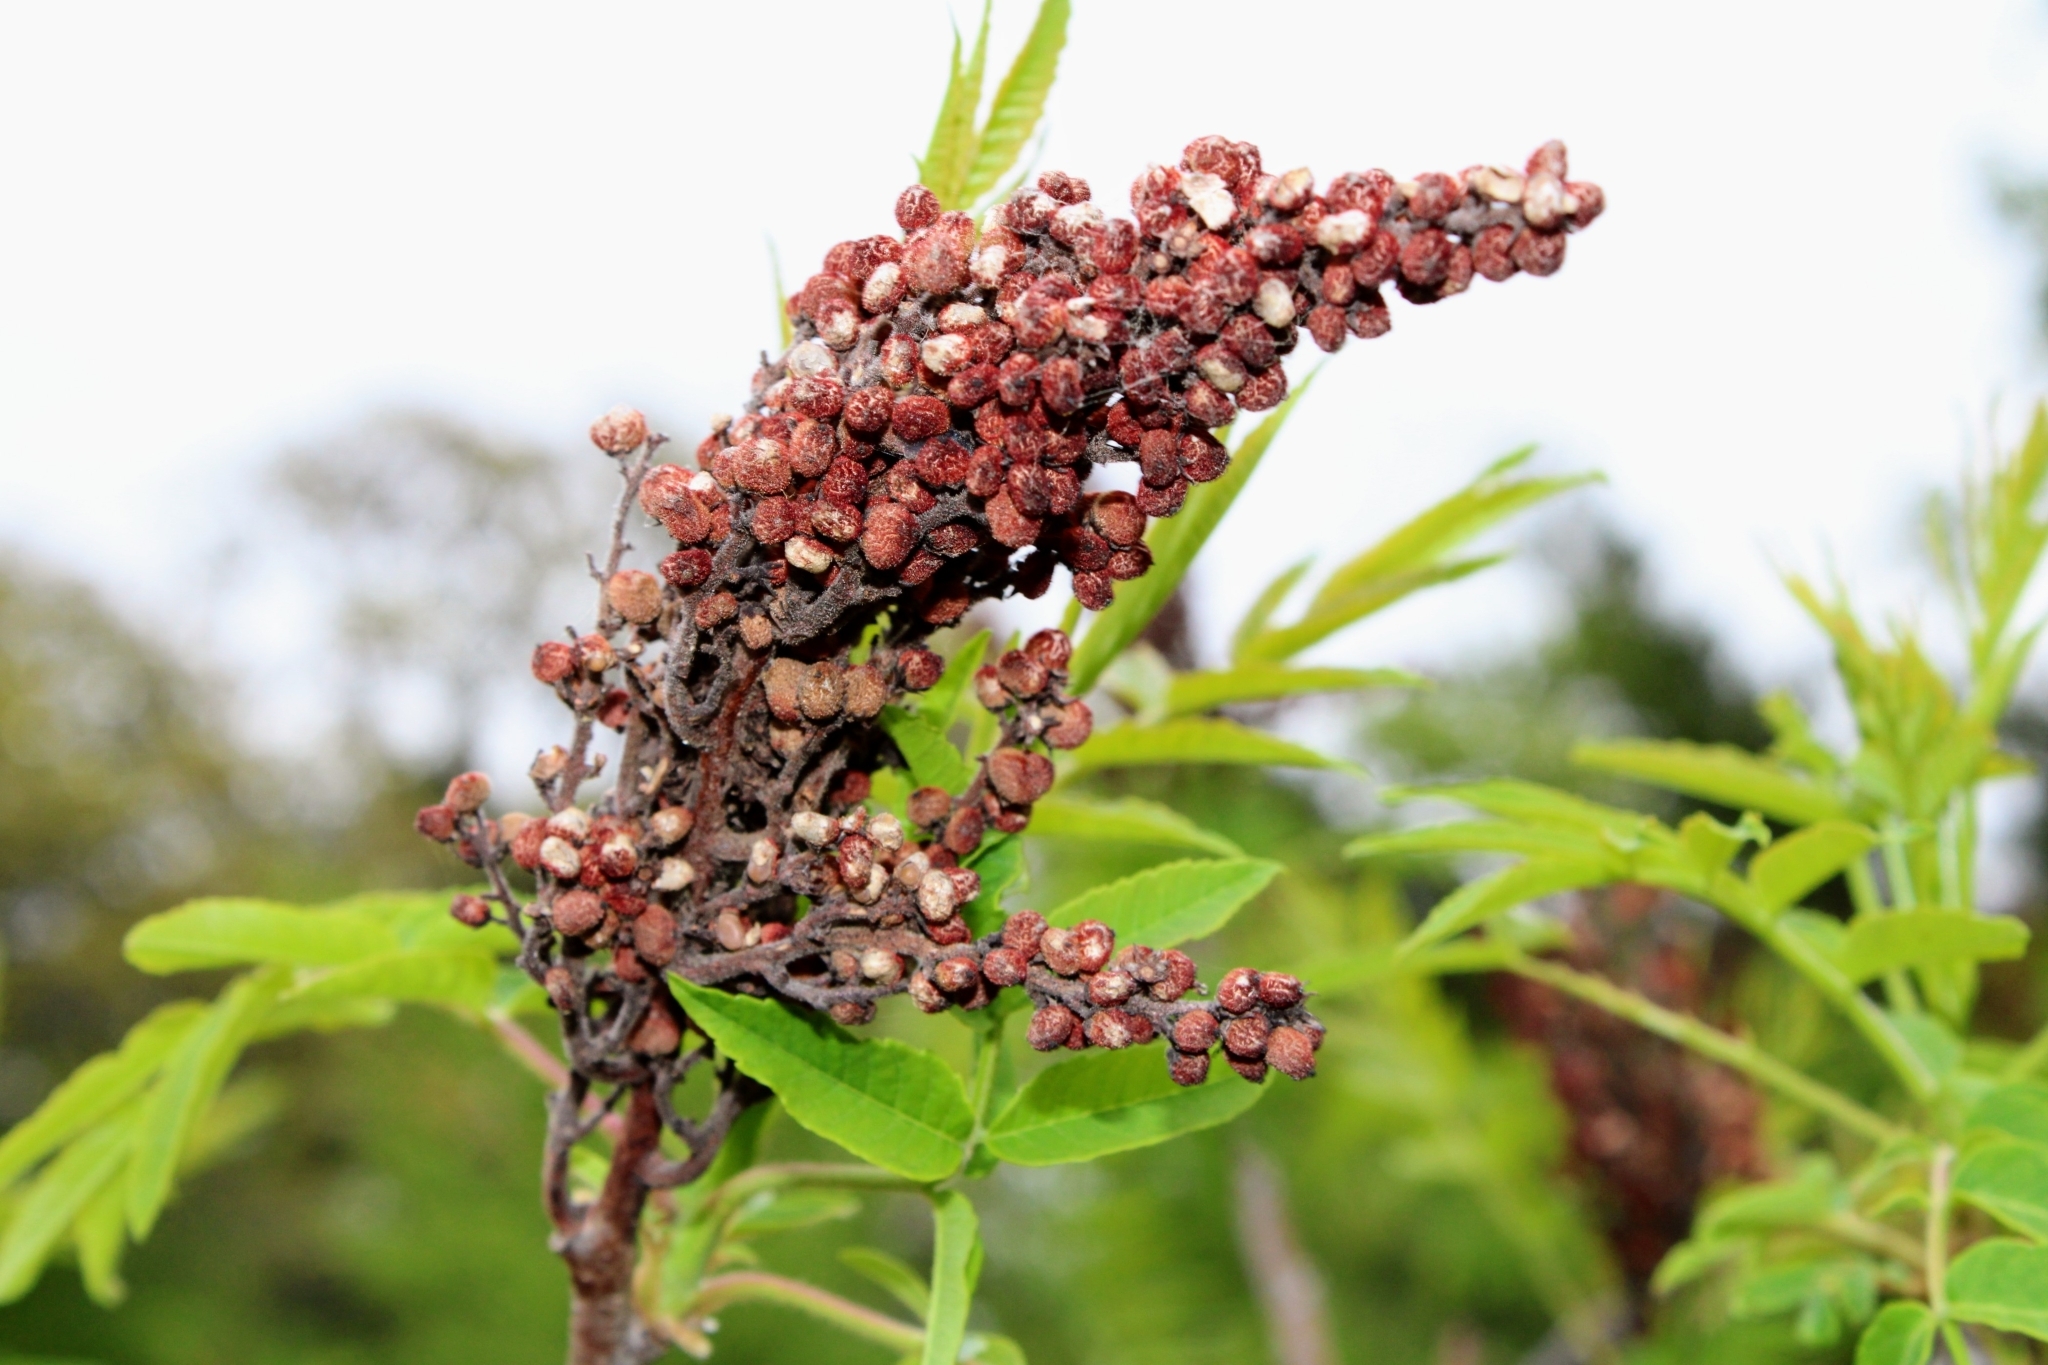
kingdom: Plantae
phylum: Tracheophyta
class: Magnoliopsida
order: Sapindales
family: Anacardiaceae
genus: Rhus
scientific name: Rhus glabra
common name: Scarlet sumac
